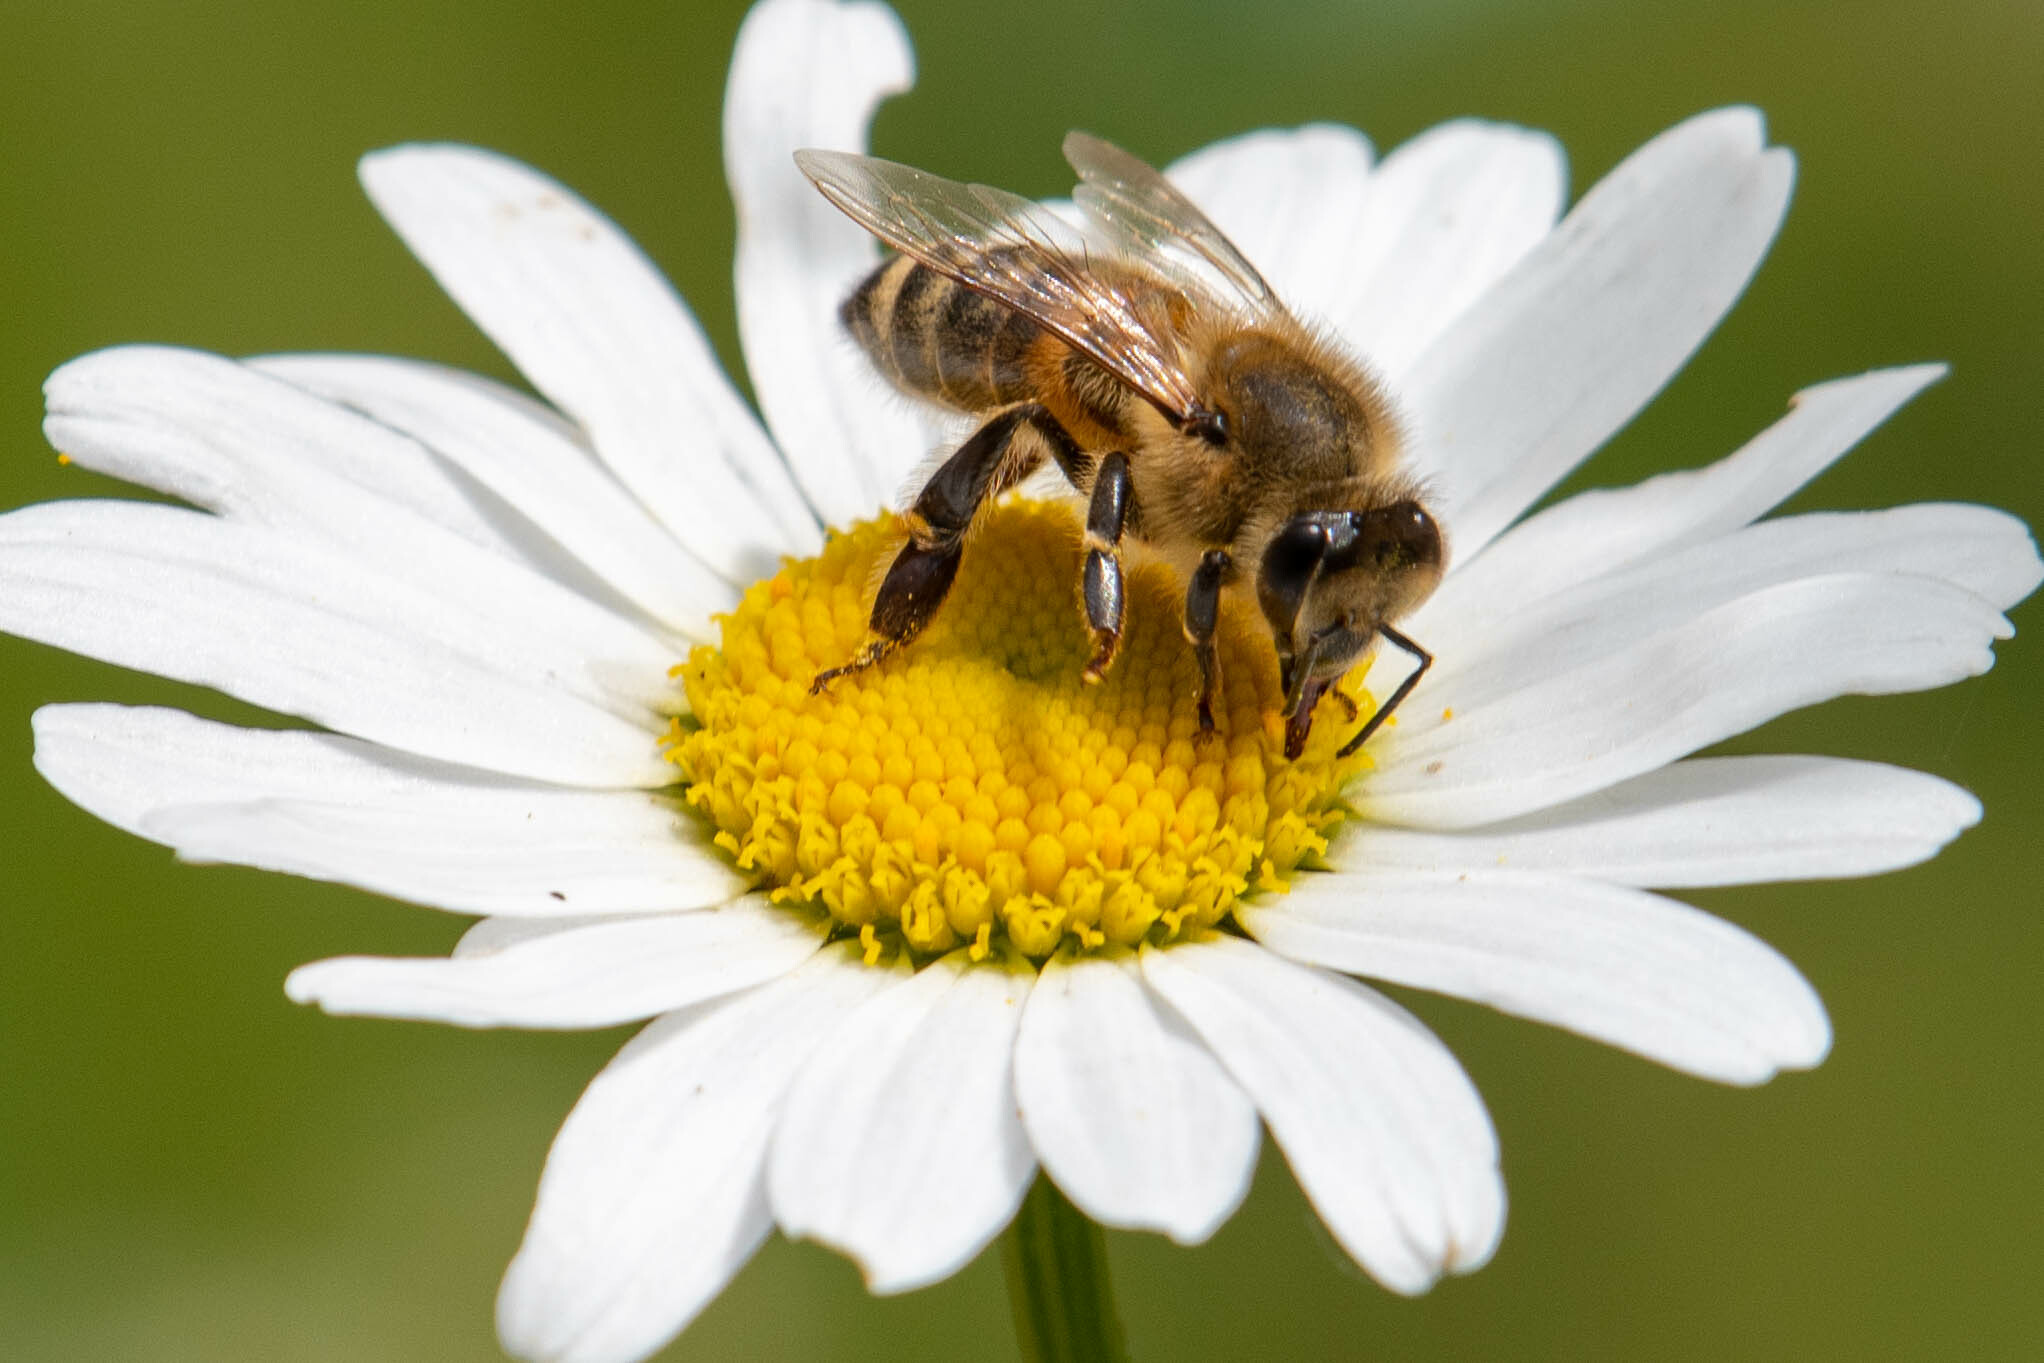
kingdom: Animalia
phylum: Arthropoda
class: Insecta
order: Hymenoptera
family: Apidae
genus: Apis
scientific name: Apis mellifera
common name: Honey bee
